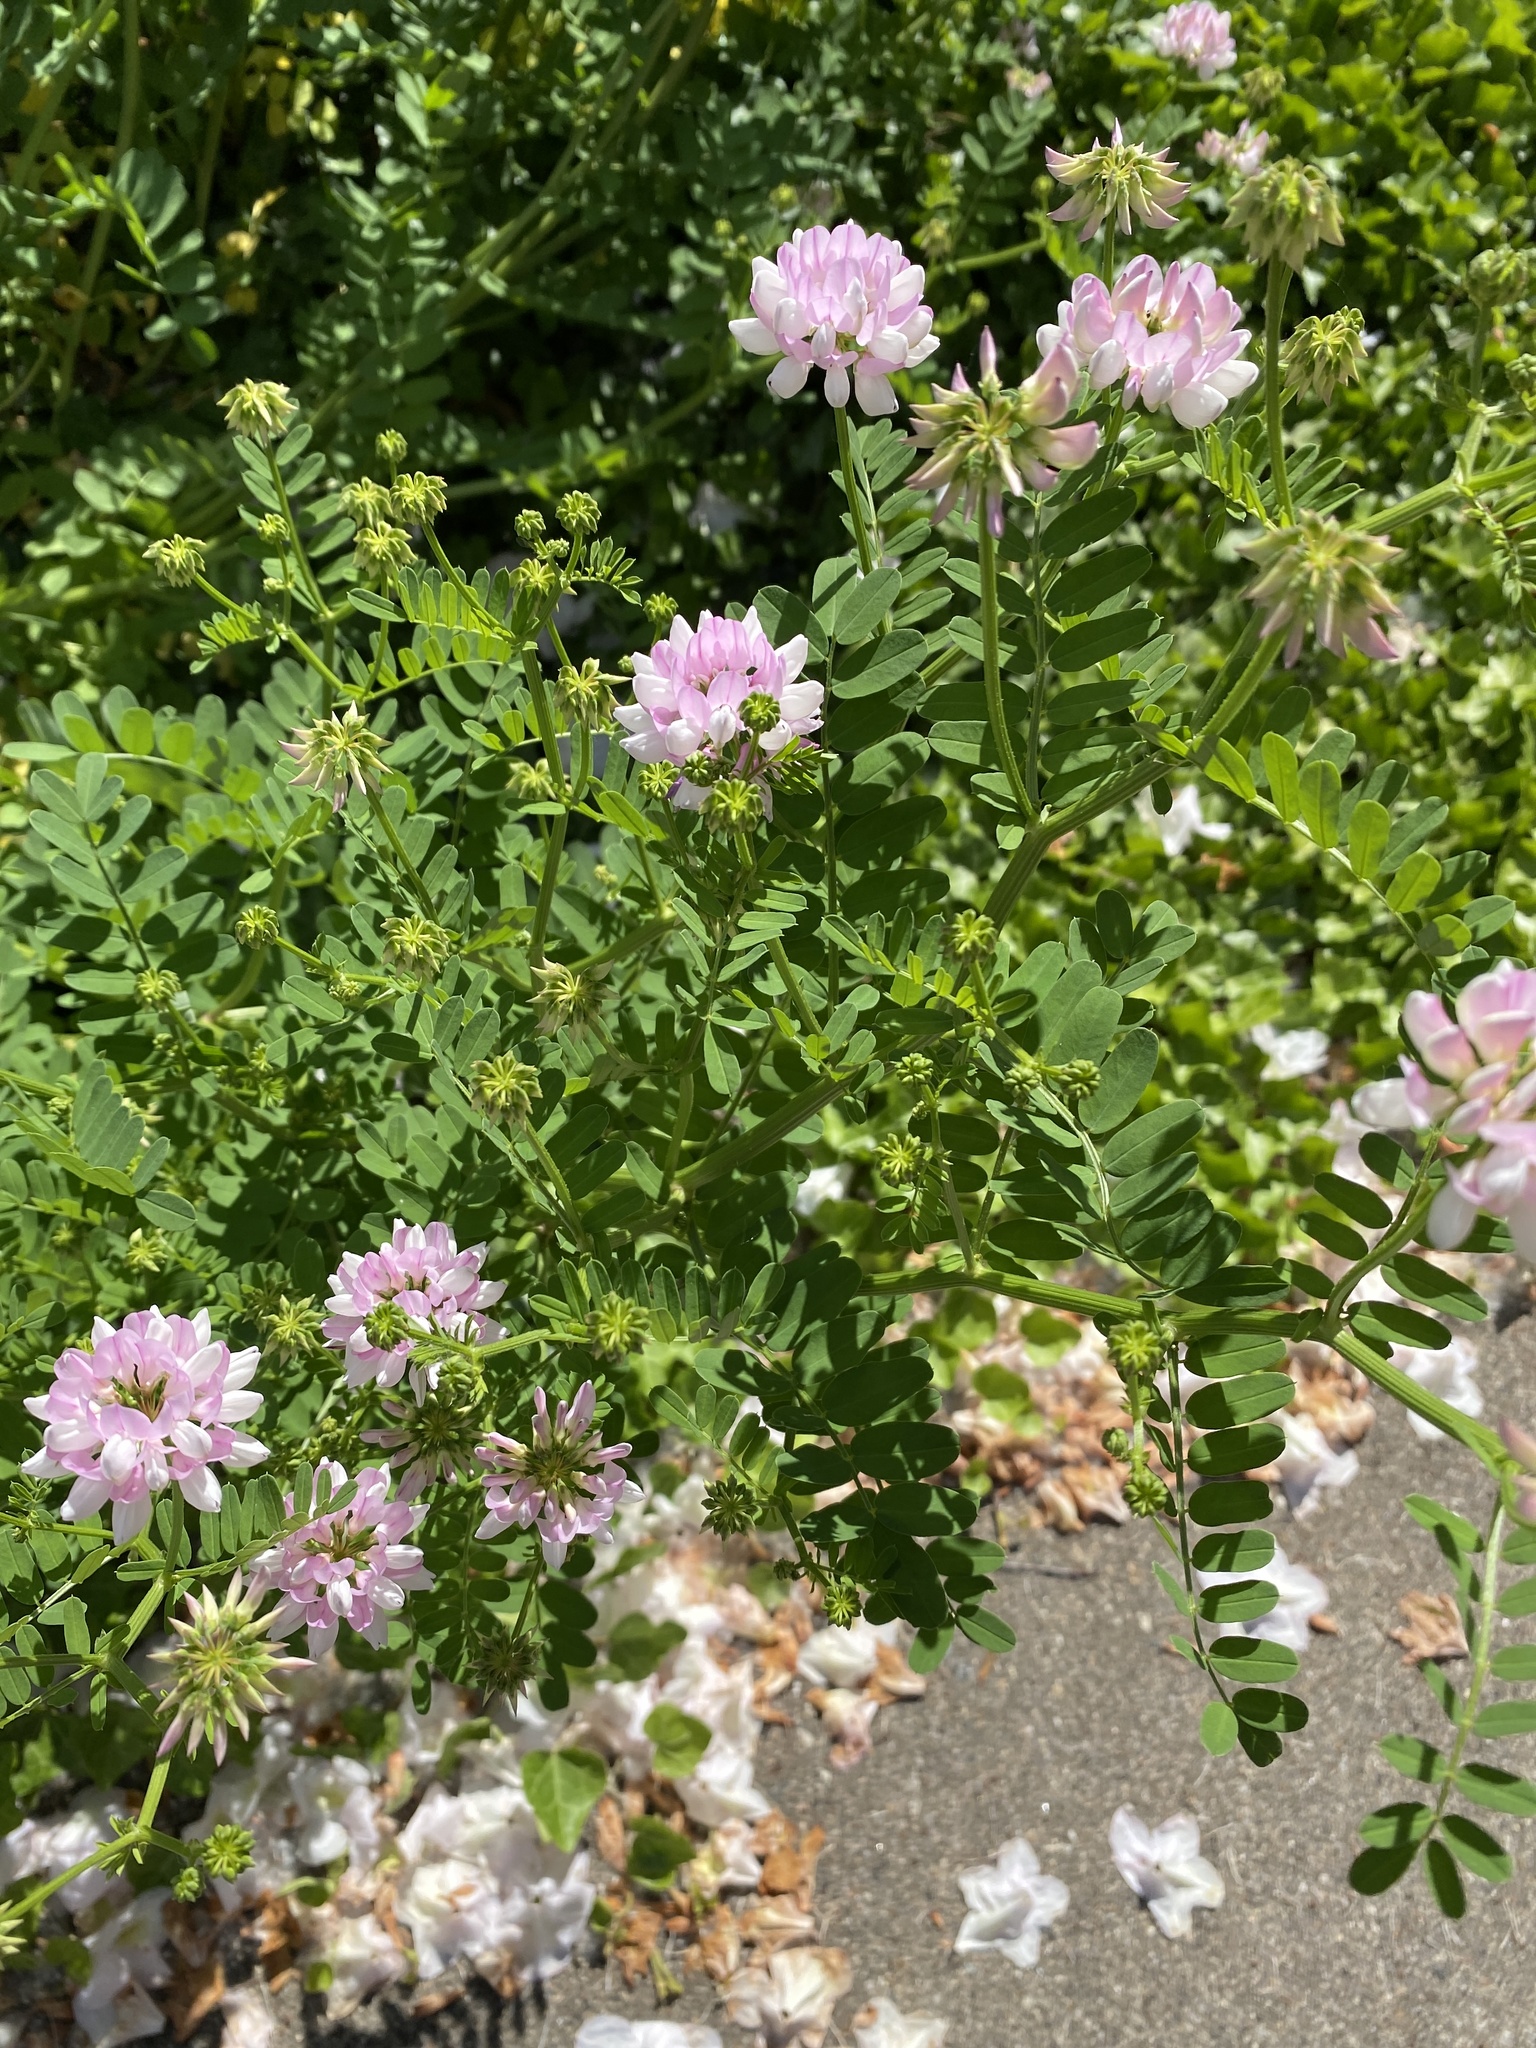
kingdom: Plantae
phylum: Tracheophyta
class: Magnoliopsida
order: Fabales
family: Fabaceae
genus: Coronilla
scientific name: Coronilla varia
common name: Crownvetch
